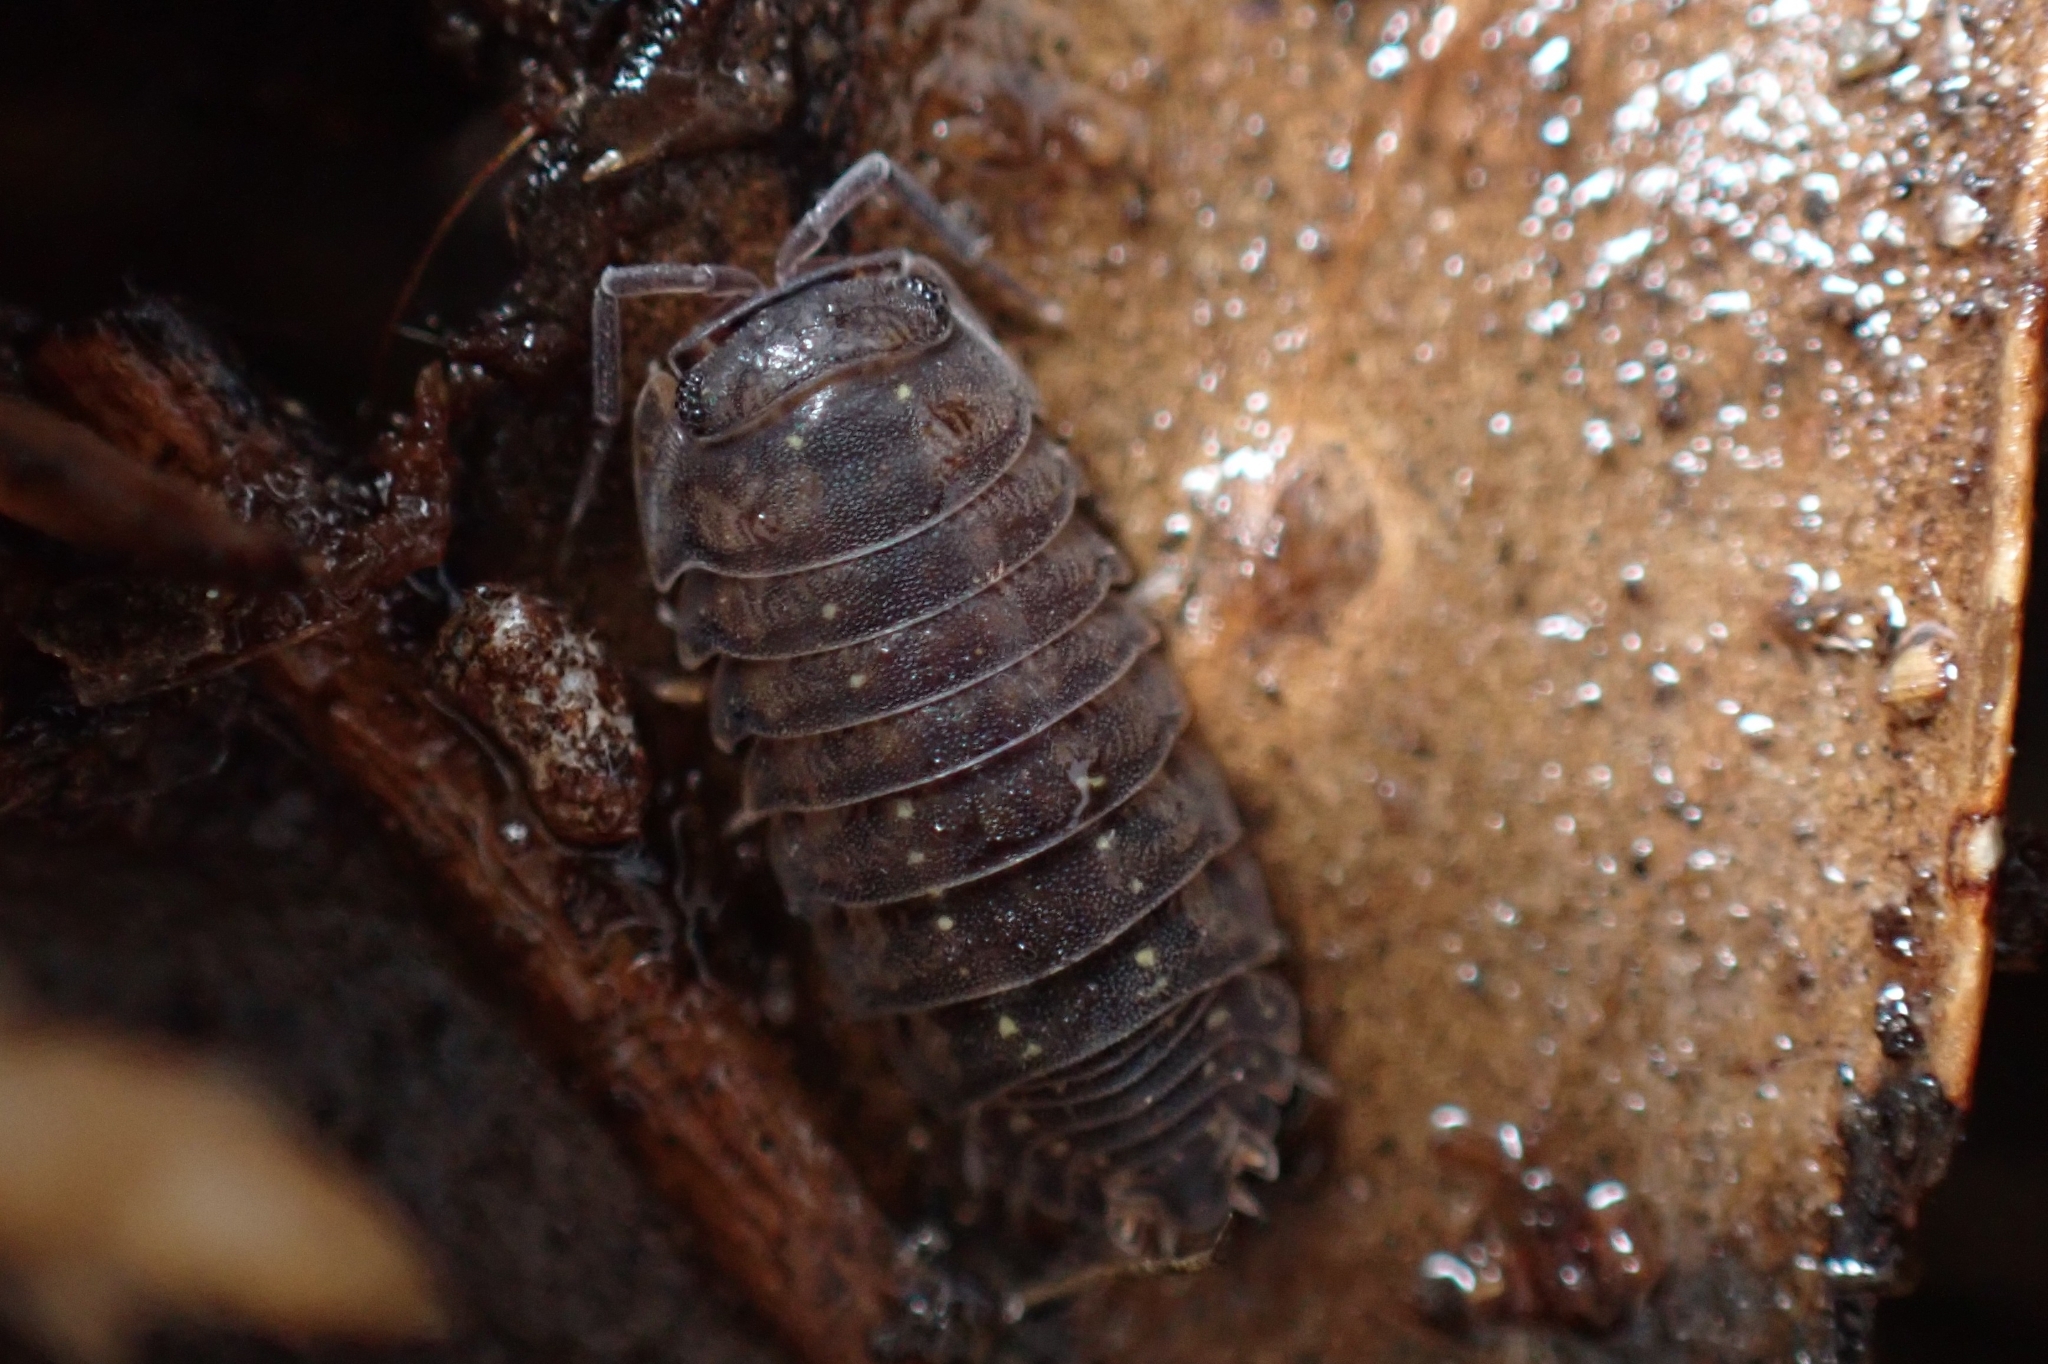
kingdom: Animalia
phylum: Arthropoda
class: Malacostraca
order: Isopoda
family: Armadillidae
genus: Cubaris
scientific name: Cubaris marmorata
